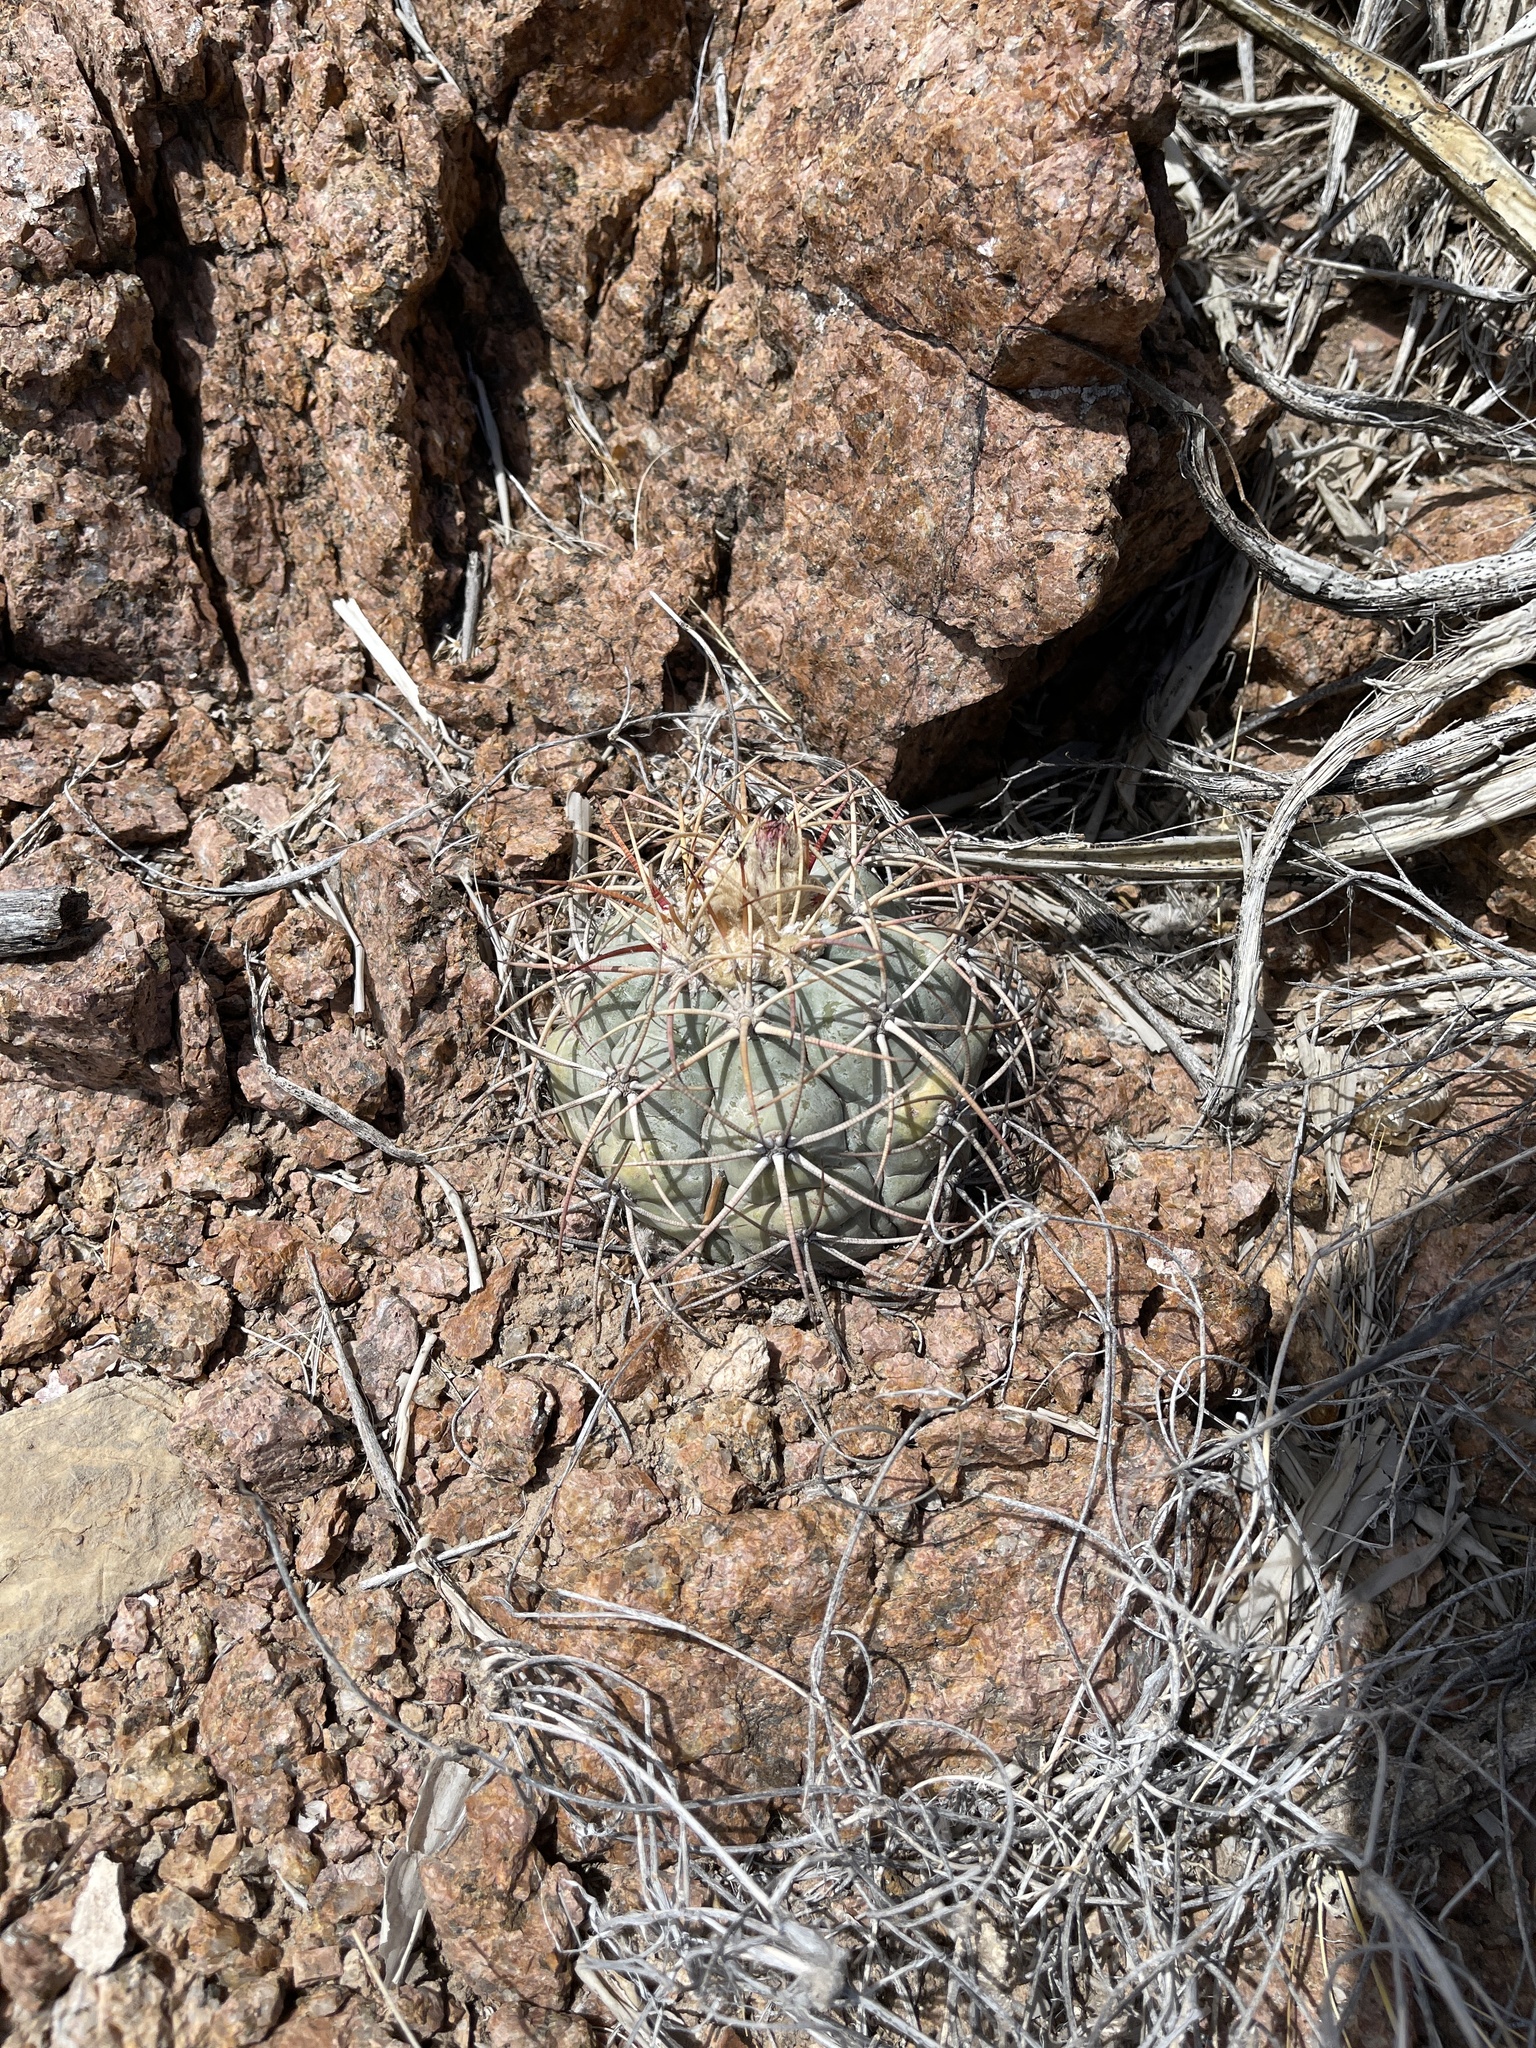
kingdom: Plantae
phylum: Tracheophyta
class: Magnoliopsida
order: Caryophyllales
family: Cactaceae
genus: Echinocactus
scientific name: Echinocactus horizonthalonius
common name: Devilshead
